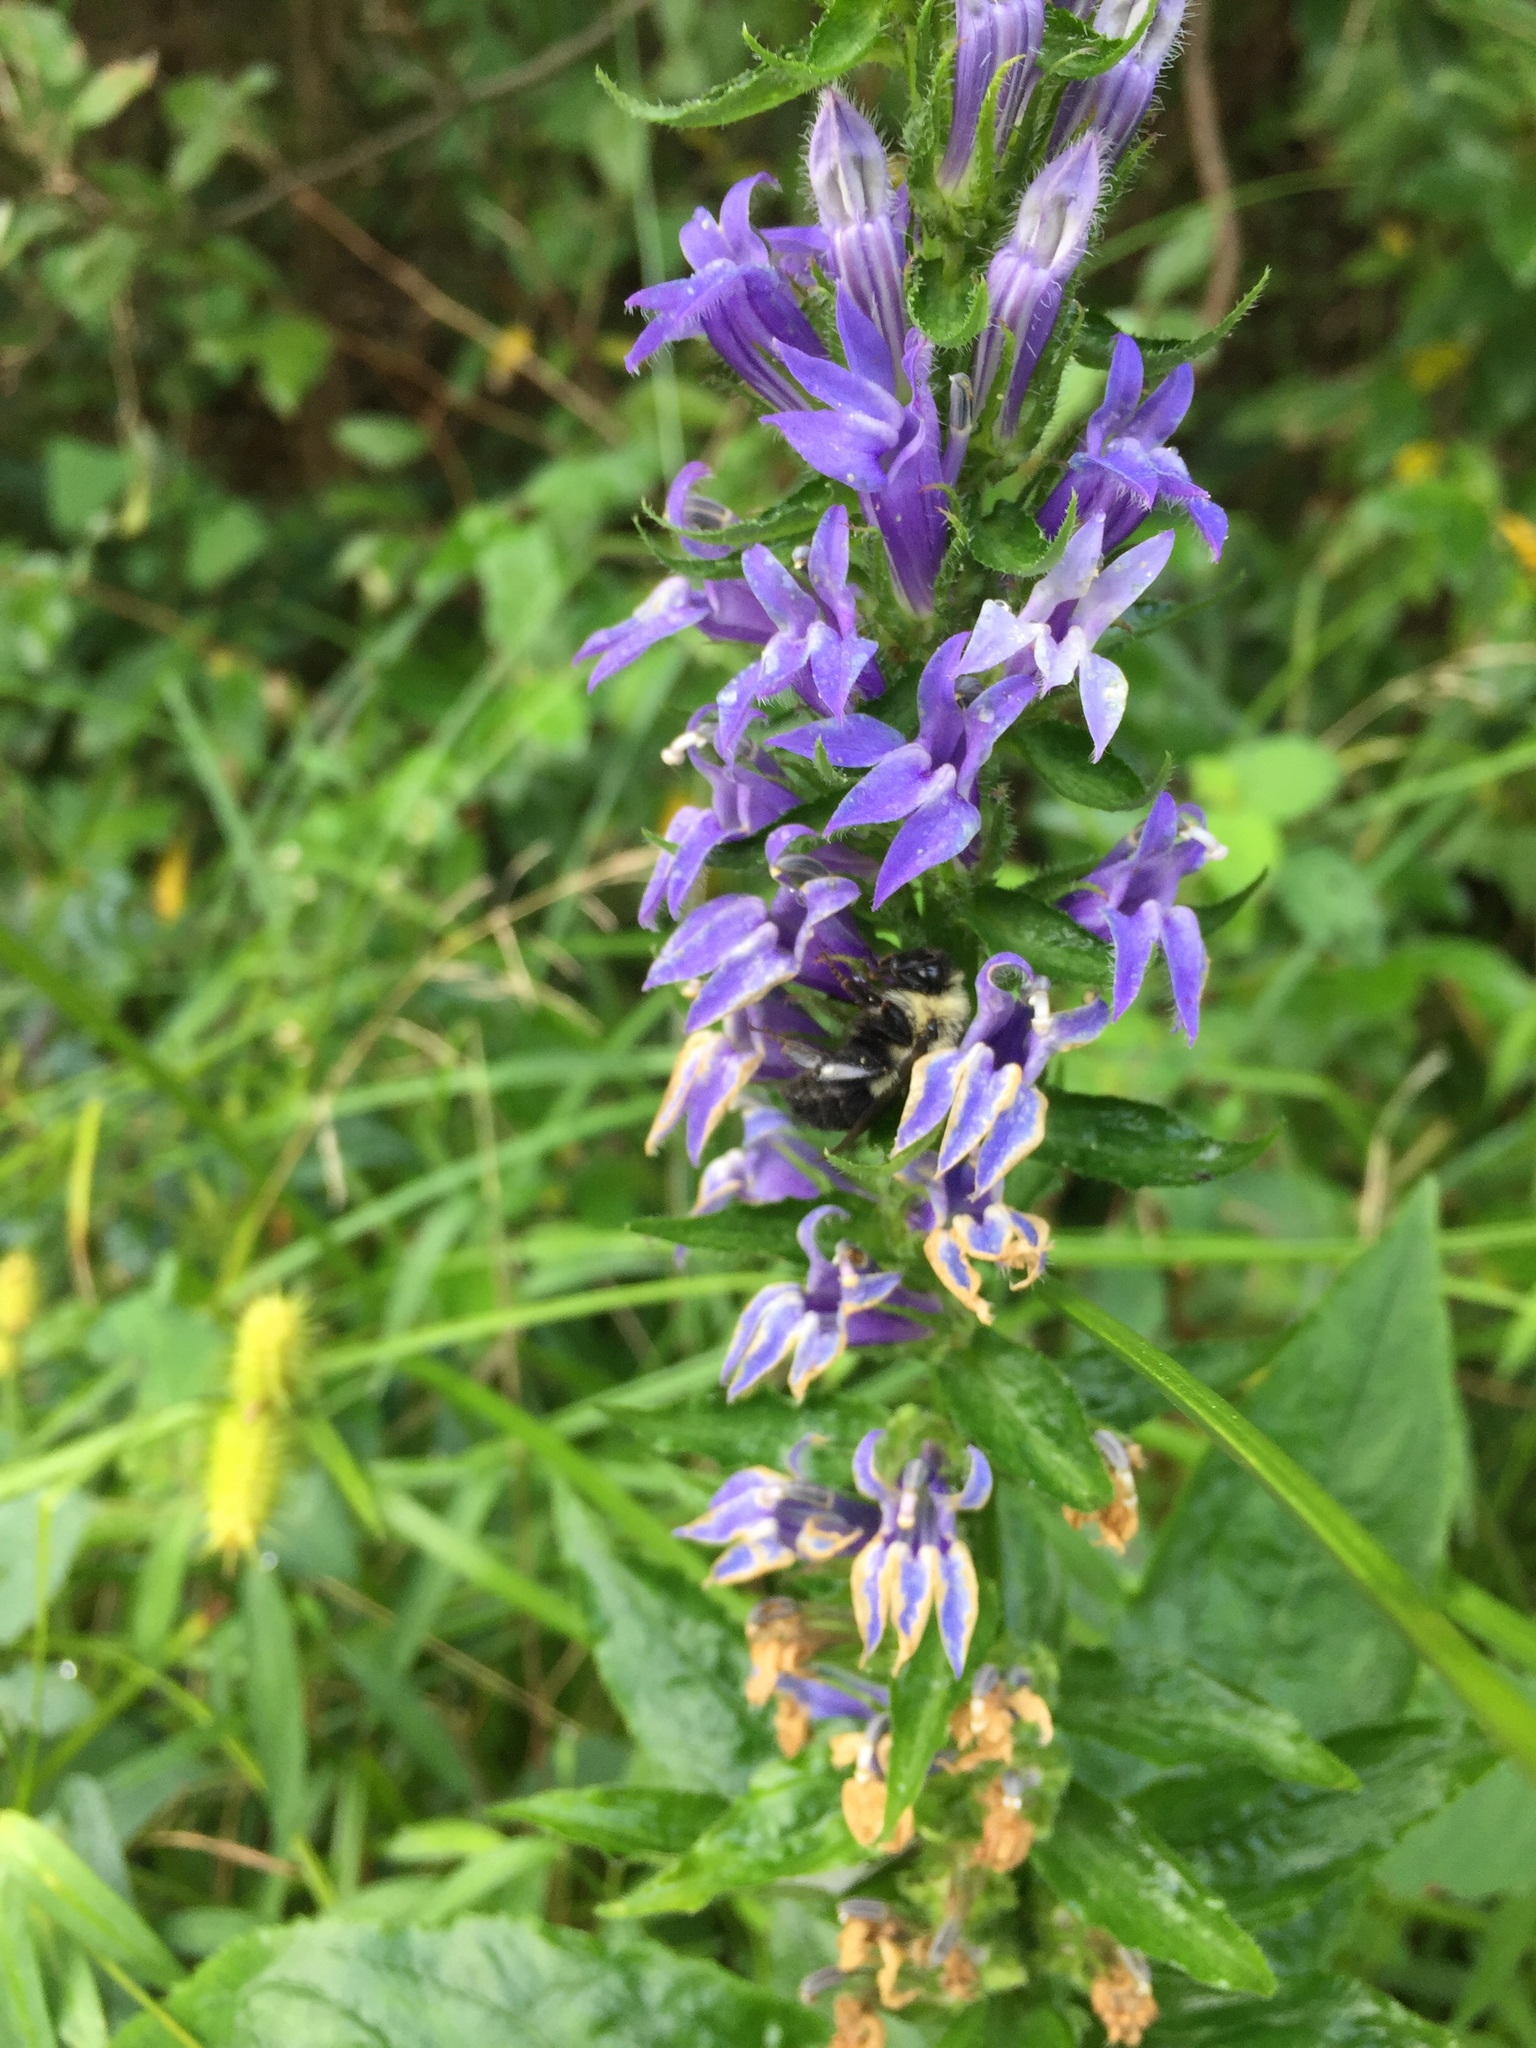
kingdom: Plantae
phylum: Tracheophyta
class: Magnoliopsida
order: Asterales
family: Campanulaceae
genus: Lobelia
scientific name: Lobelia siphilitica
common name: Great lobelia
